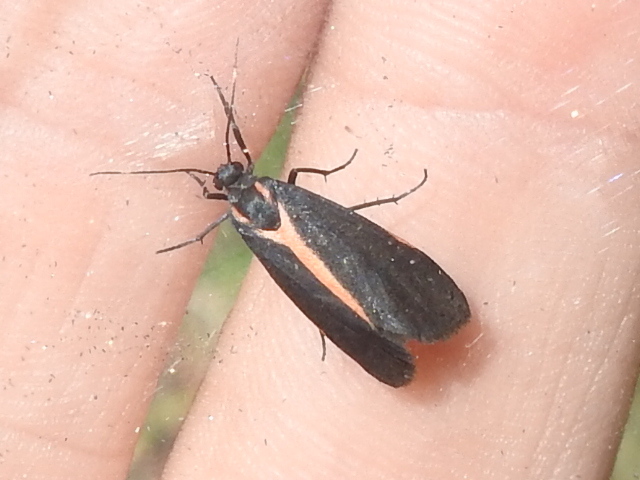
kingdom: Animalia
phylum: Arthropoda
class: Insecta
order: Lepidoptera
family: Erebidae
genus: Cisthene
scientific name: Cisthene juanita
